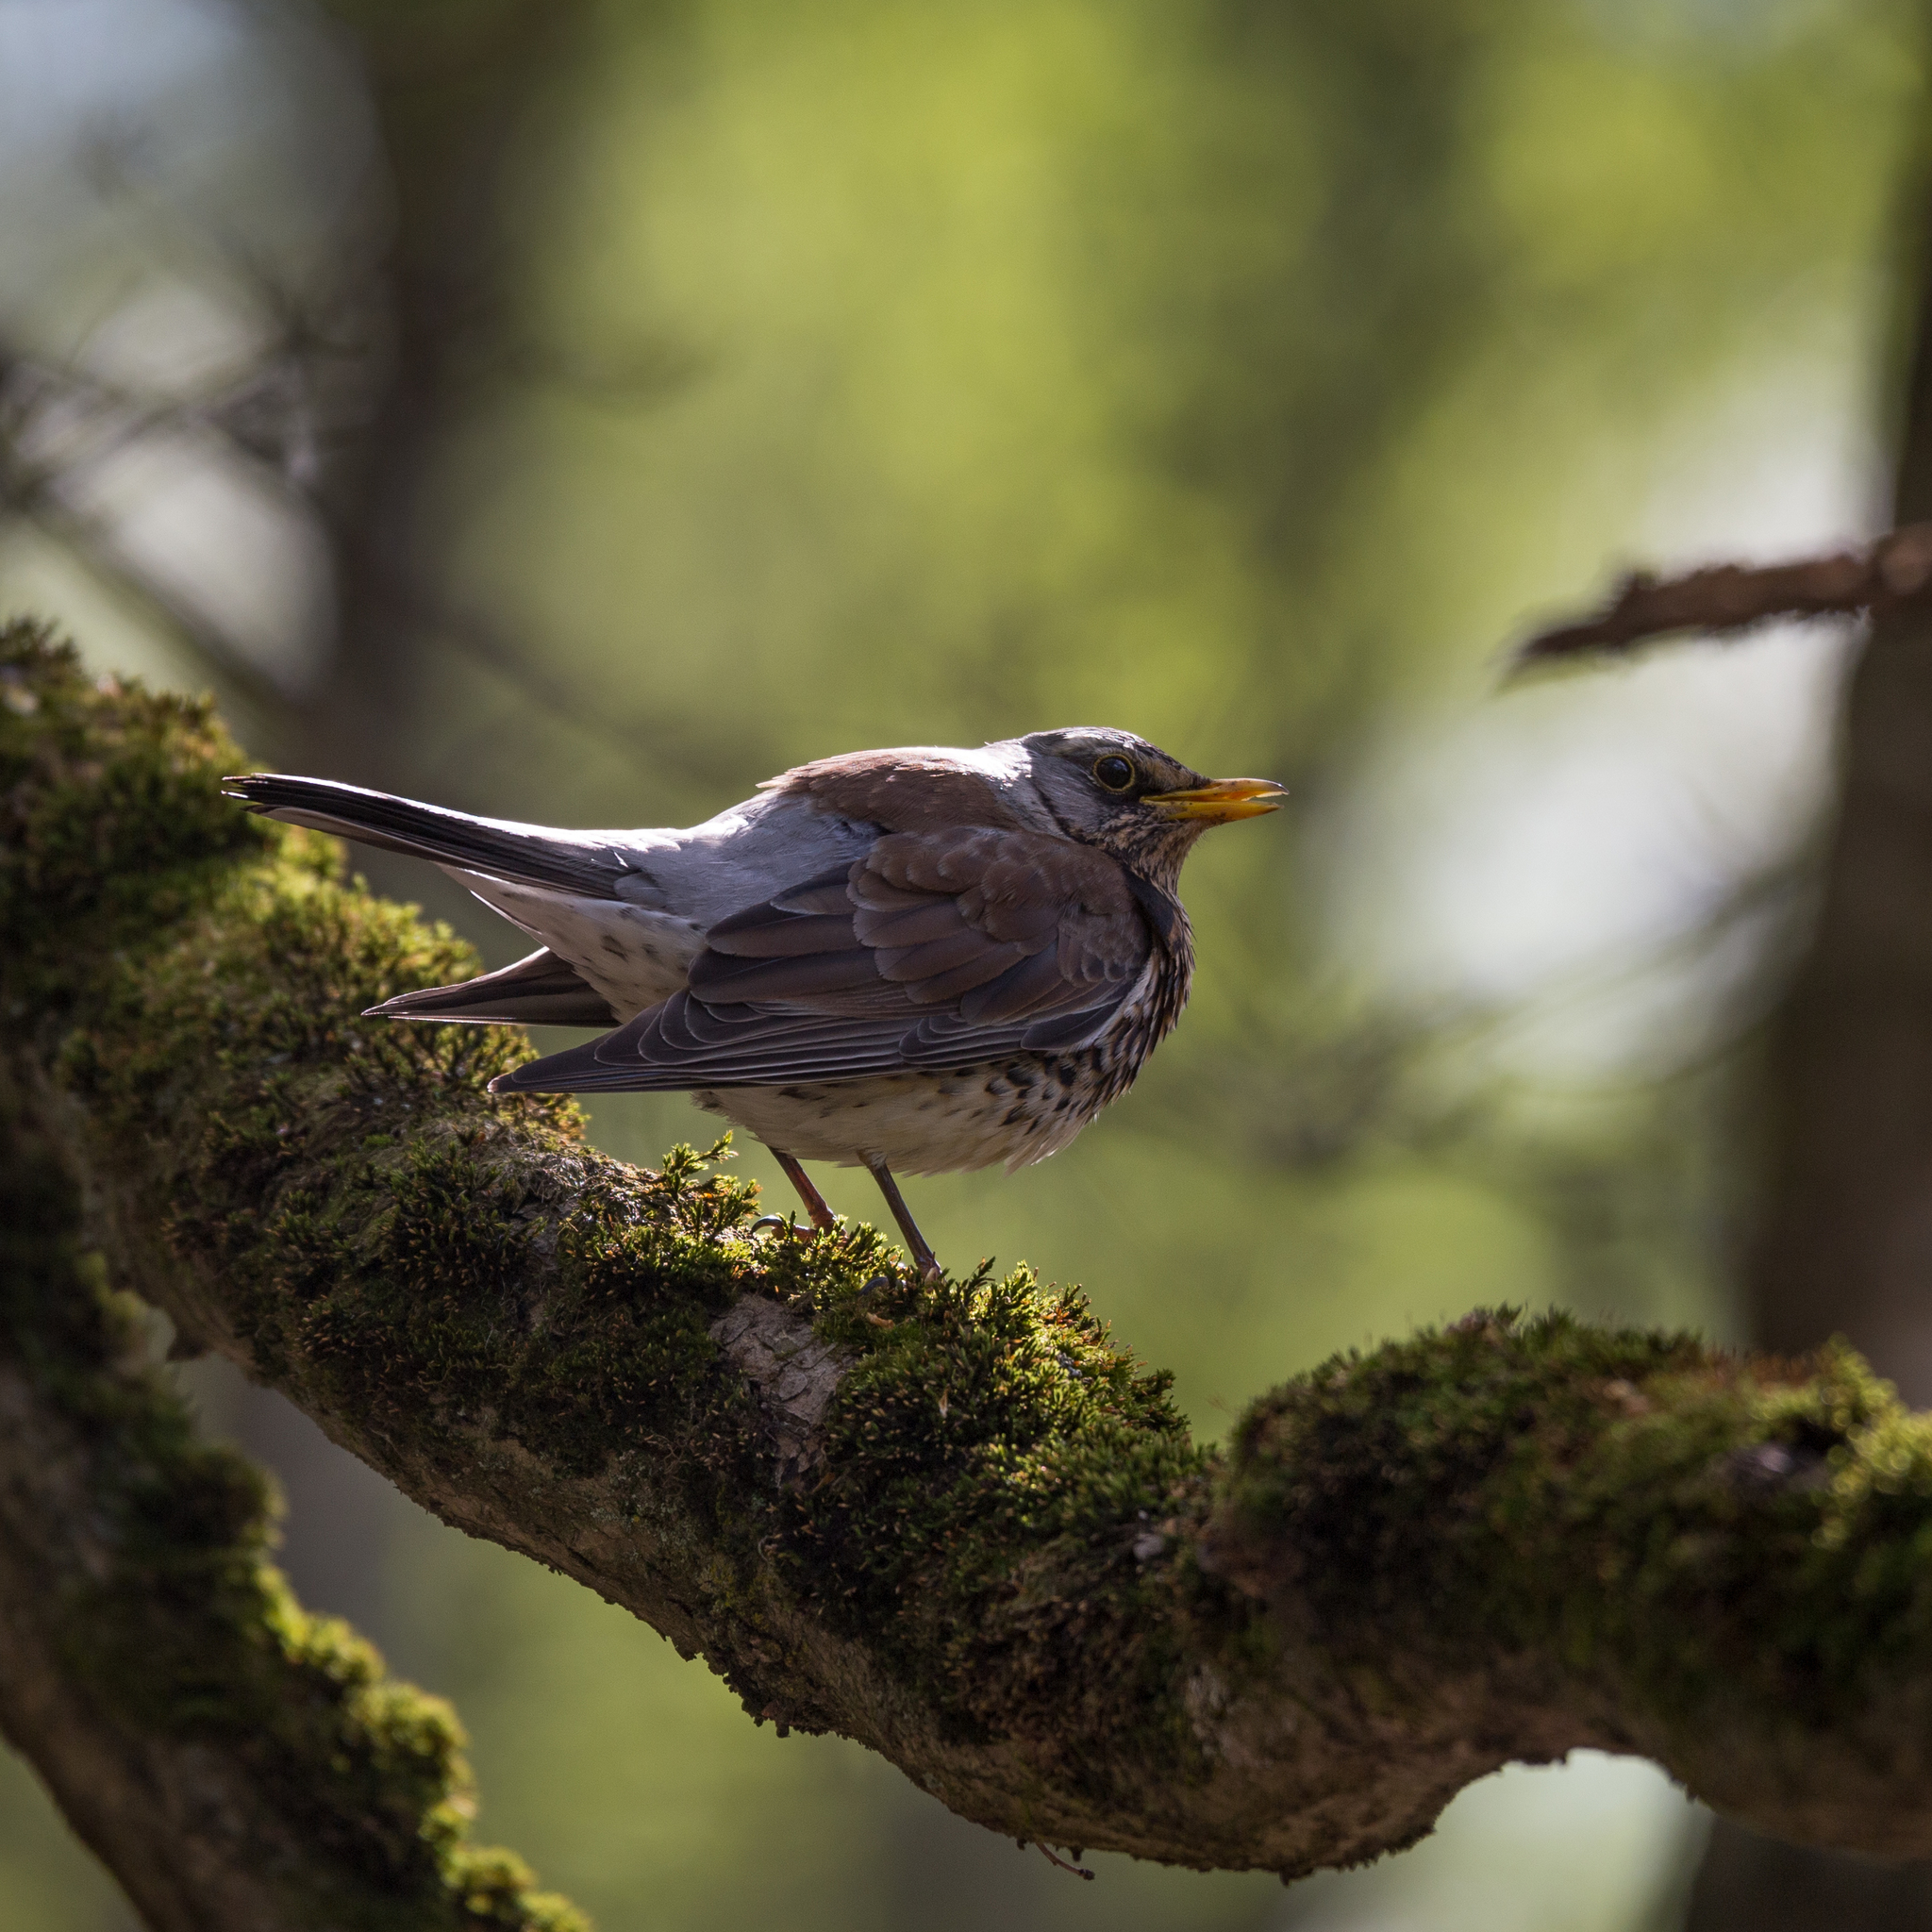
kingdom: Animalia
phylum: Chordata
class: Aves
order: Passeriformes
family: Turdidae
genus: Turdus
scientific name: Turdus pilaris
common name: Fieldfare
